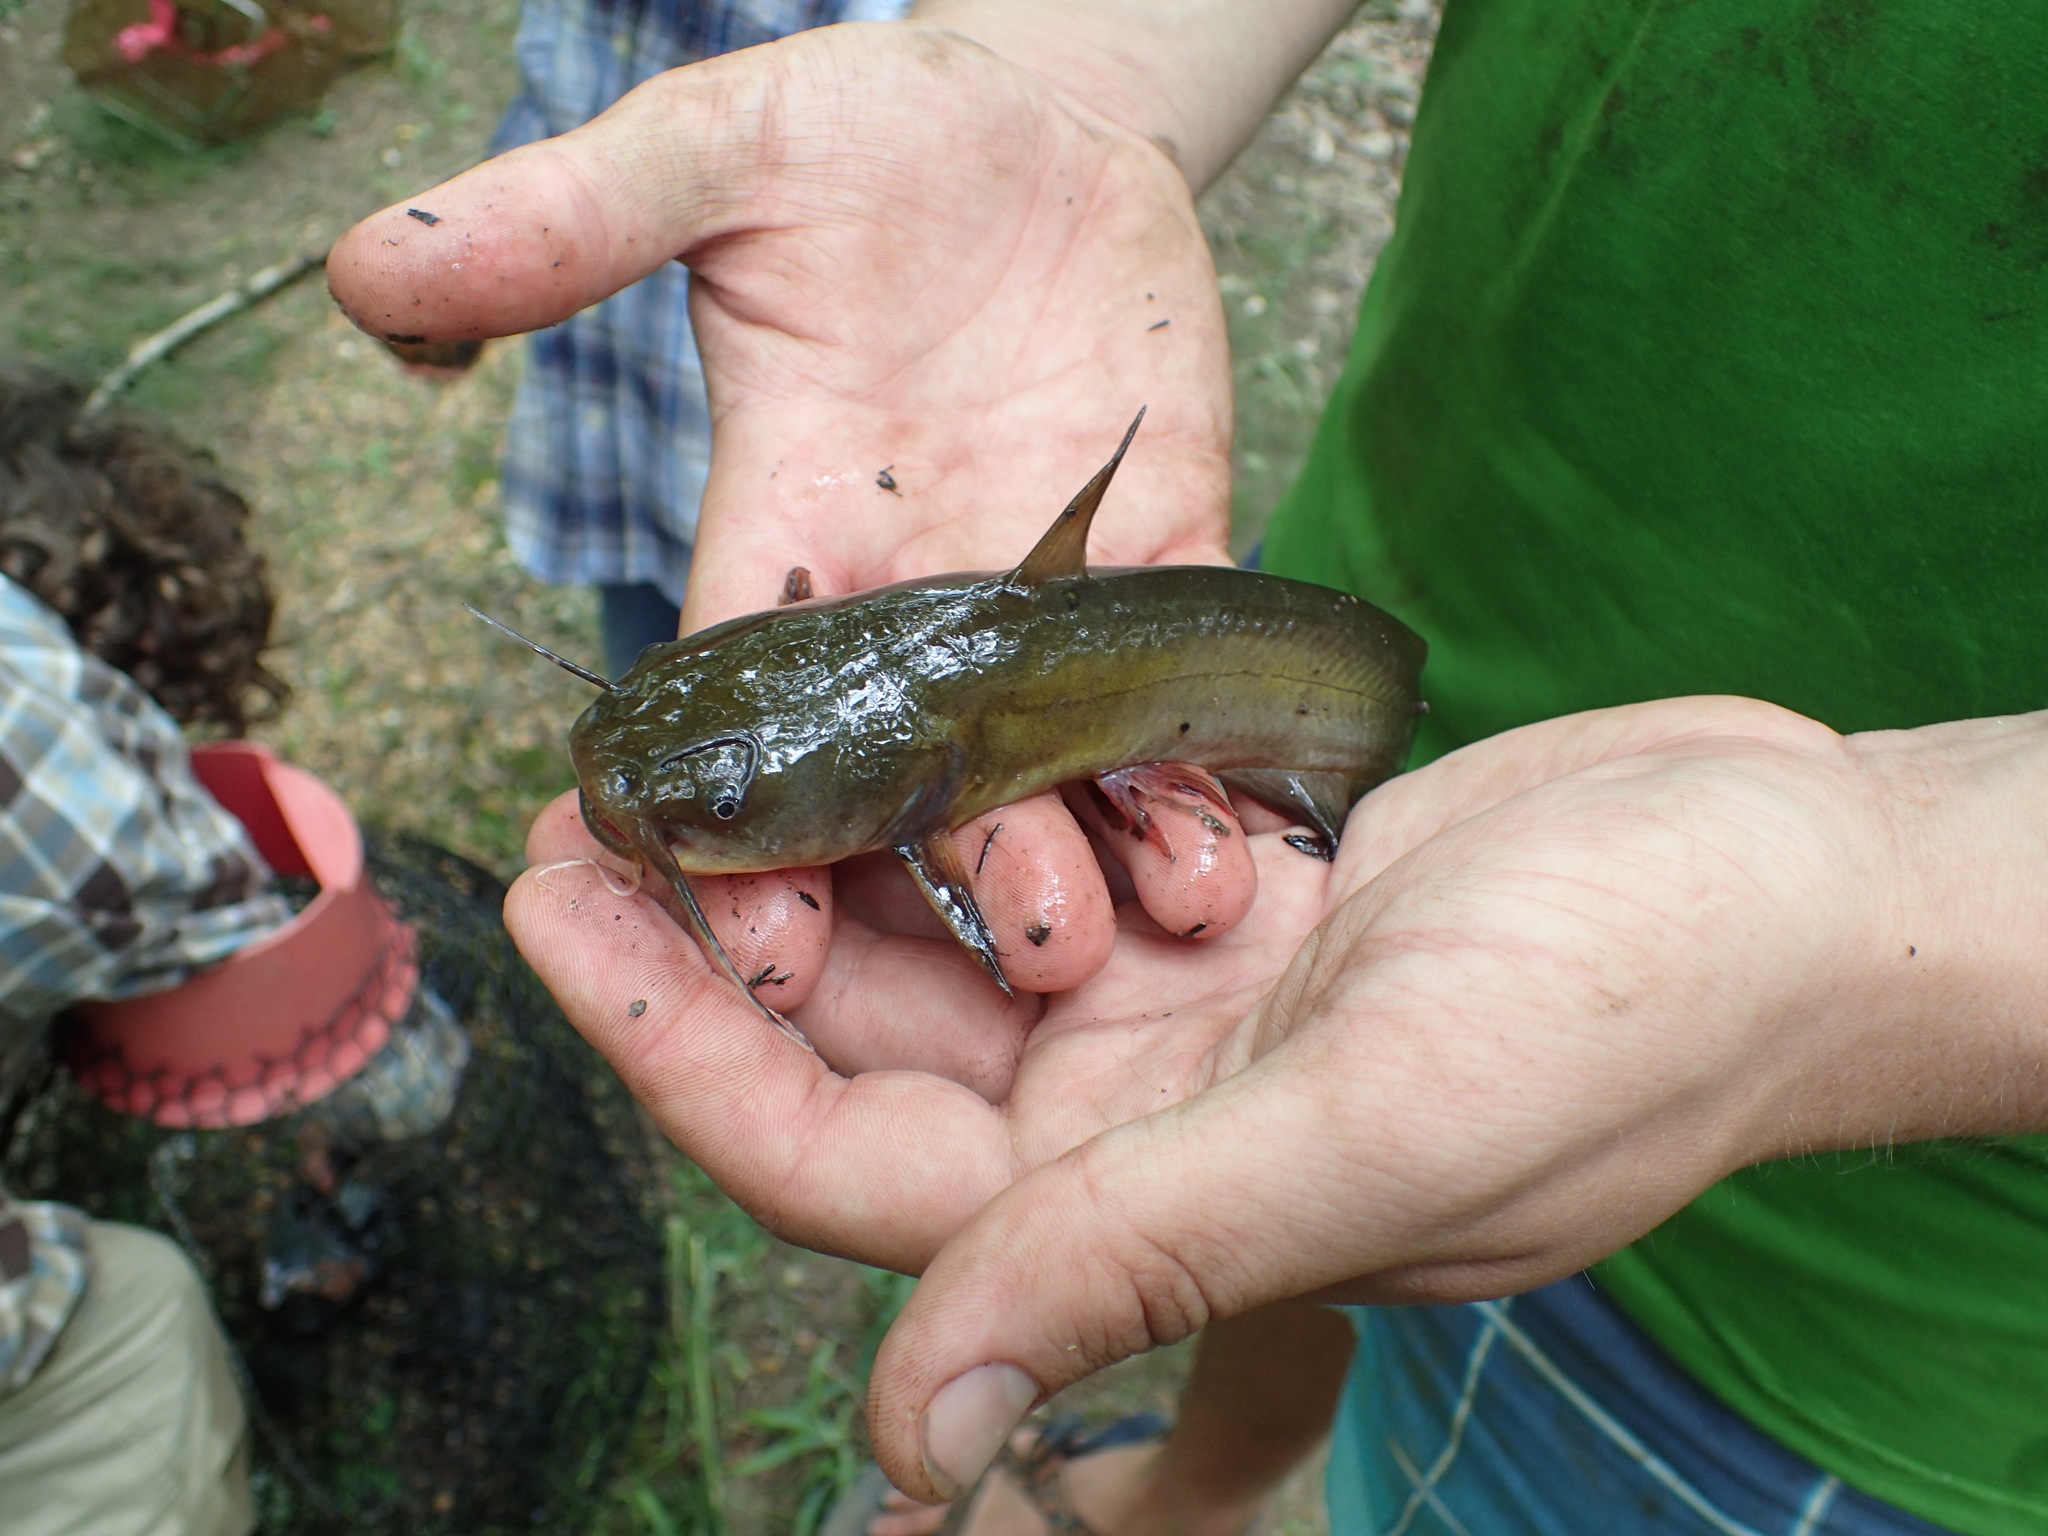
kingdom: Animalia
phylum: Chordata
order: Siluriformes
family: Ictaluridae
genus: Ameiurus
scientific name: Ameiurus natalis
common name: Yellow bullhead
